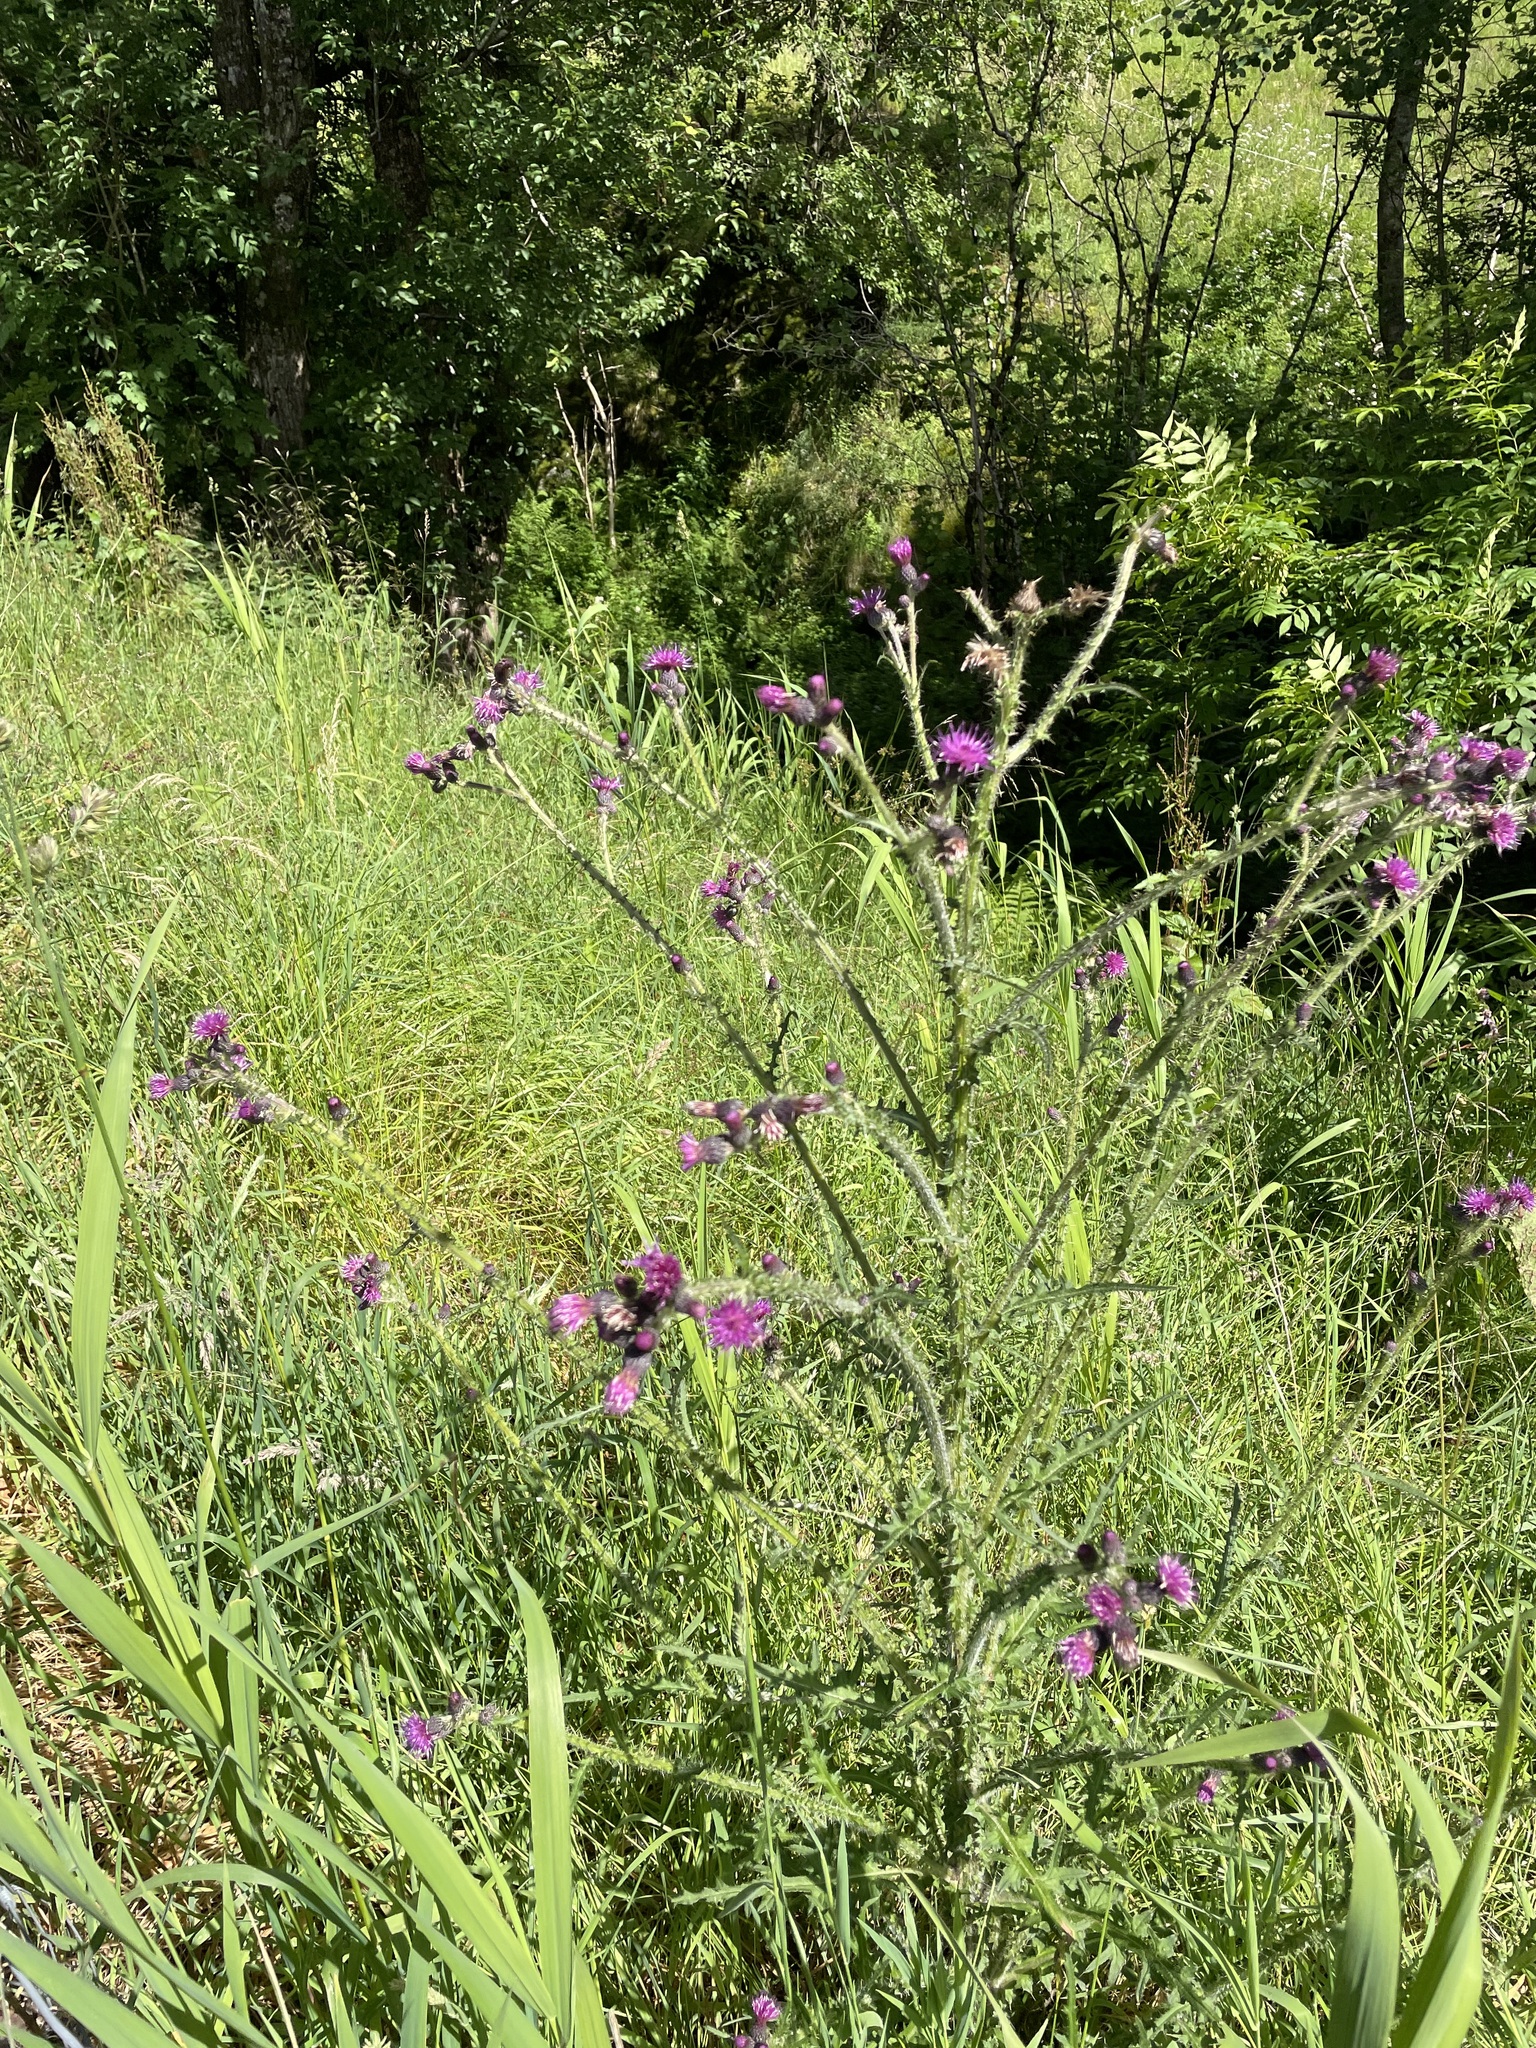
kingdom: Plantae
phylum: Tracheophyta
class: Magnoliopsida
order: Asterales
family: Asteraceae
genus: Cirsium
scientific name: Cirsium palustre
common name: Marsh thistle
